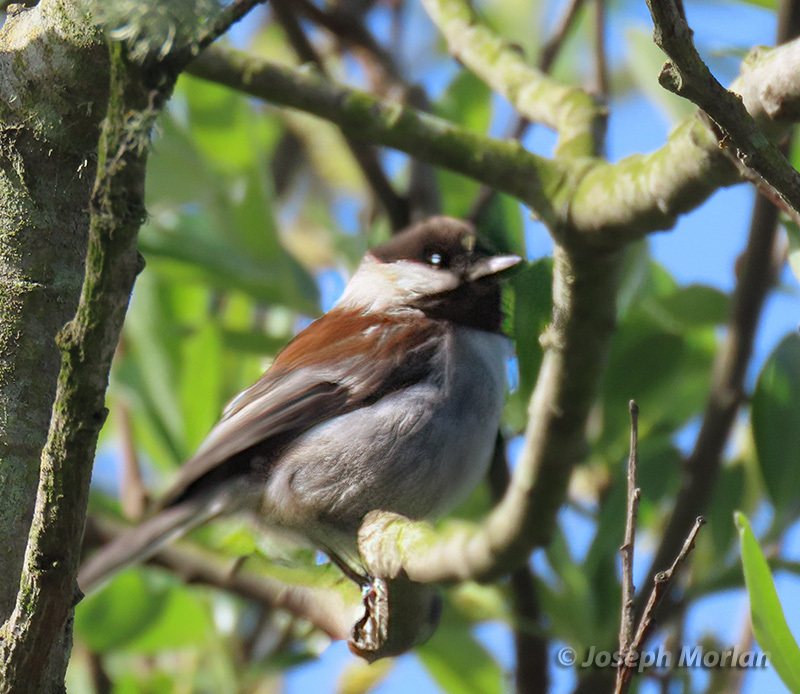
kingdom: Animalia
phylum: Chordata
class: Aves
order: Passeriformes
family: Paridae
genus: Poecile
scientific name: Poecile rufescens
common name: Chestnut-backed chickadee
